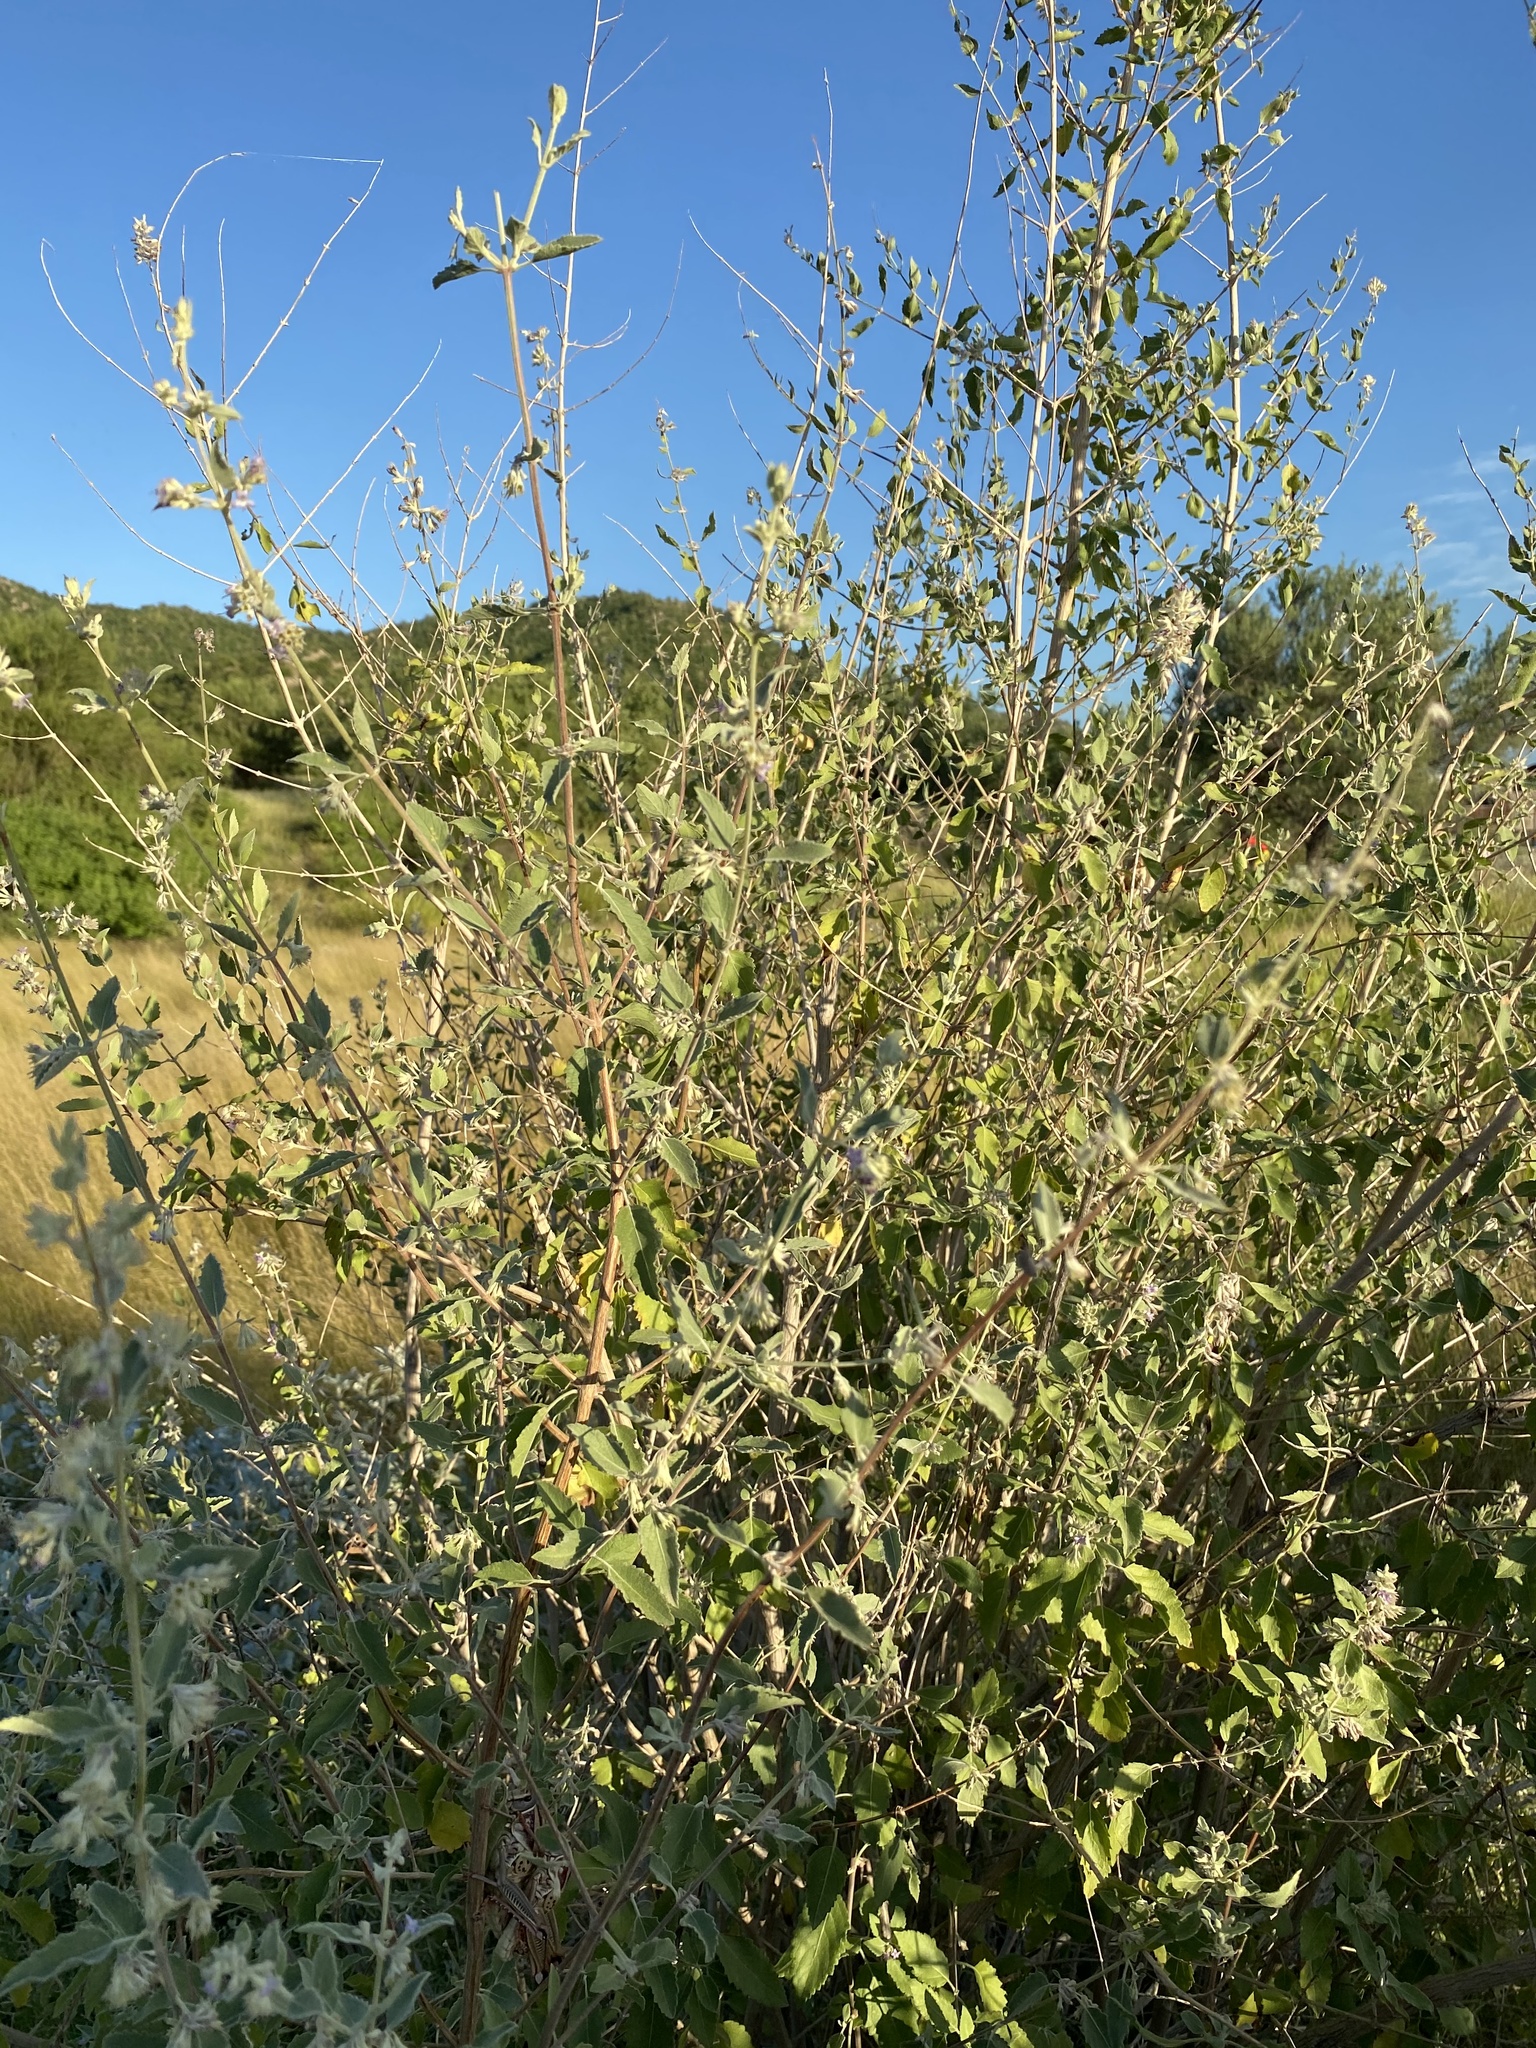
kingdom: Plantae
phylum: Tracheophyta
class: Magnoliopsida
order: Lamiales
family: Lamiaceae
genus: Condea
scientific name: Condea emoryi
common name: Chia
